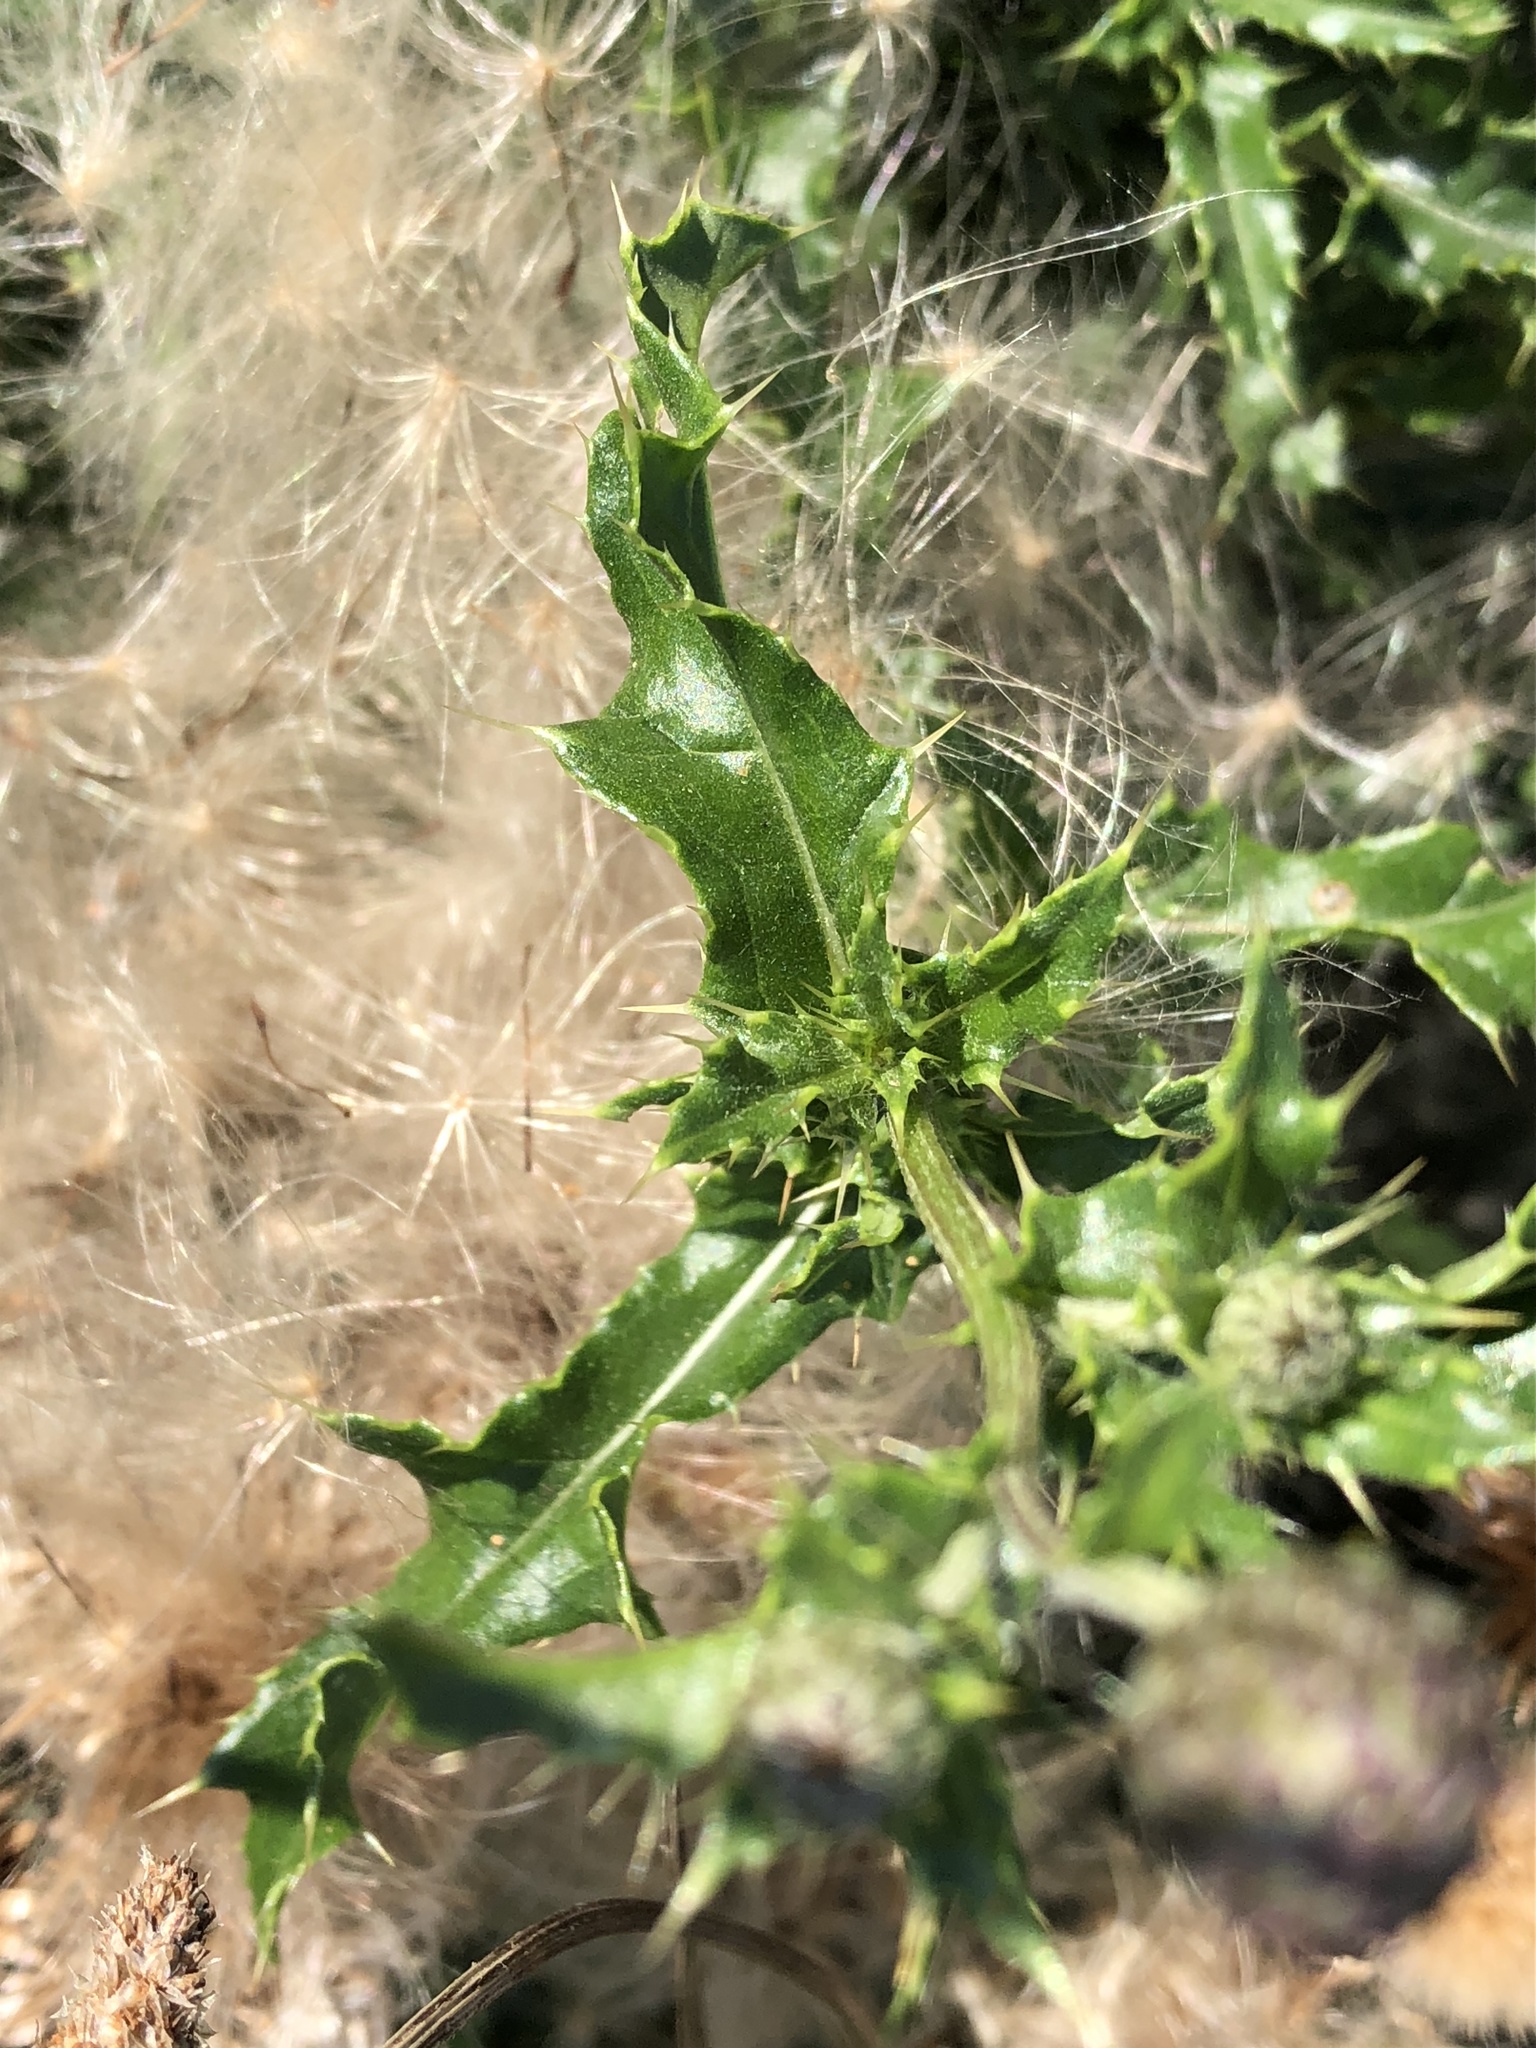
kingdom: Plantae
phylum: Tracheophyta
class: Magnoliopsida
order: Asterales
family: Asteraceae
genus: Cirsium
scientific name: Cirsium arvense
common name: Creeping thistle
